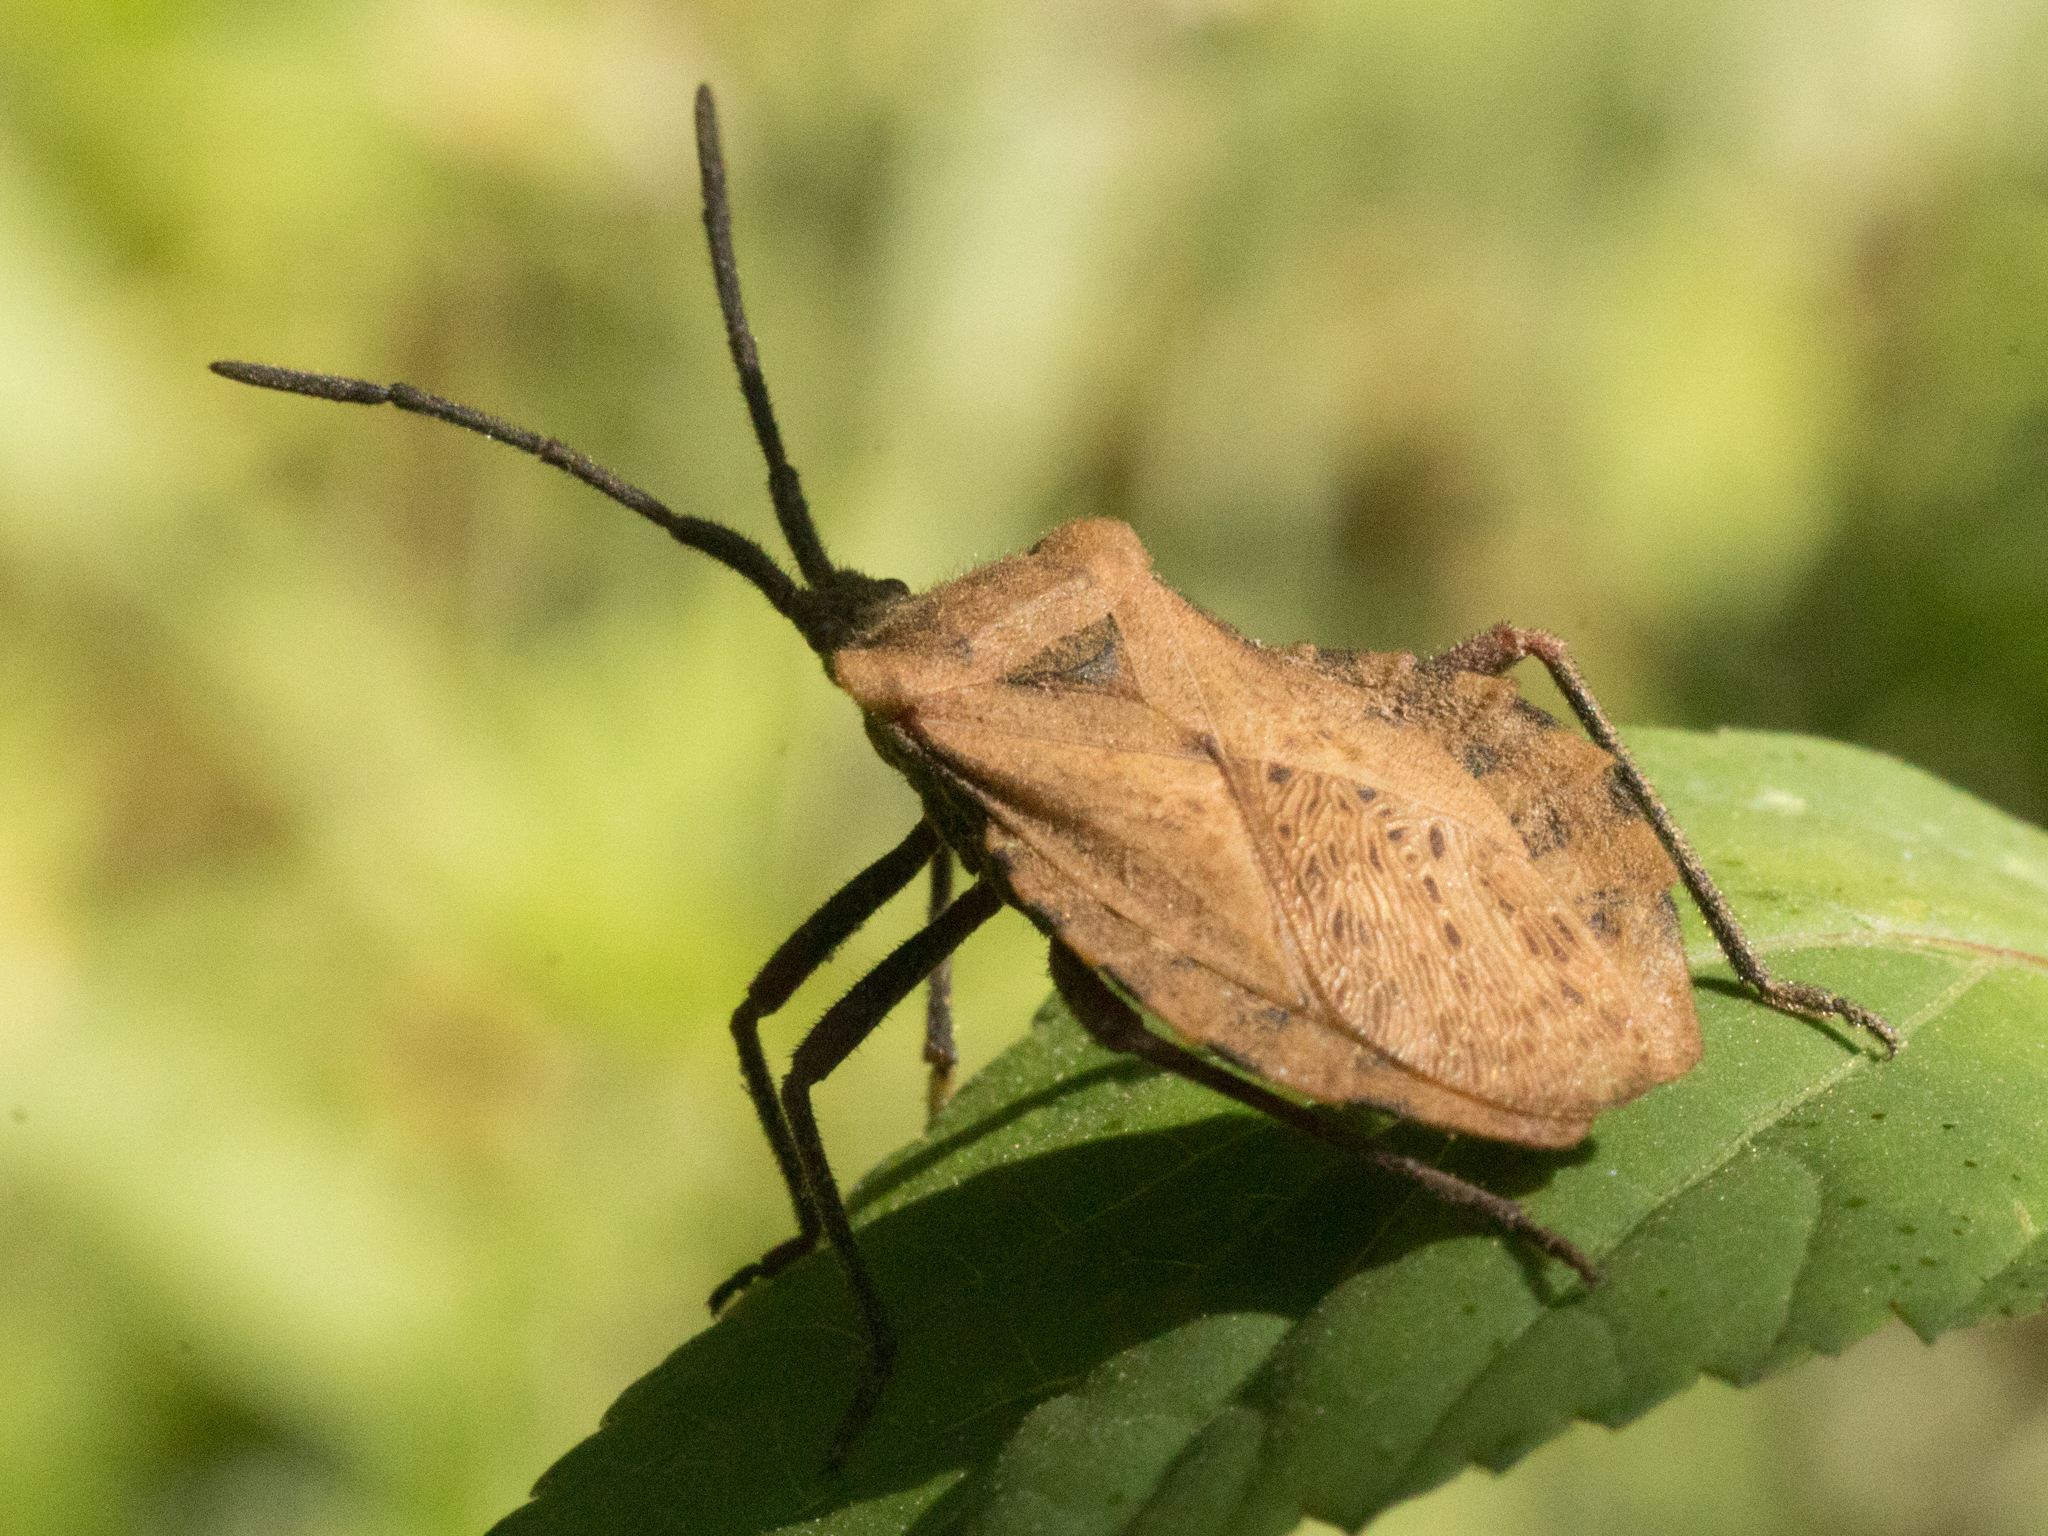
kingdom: Animalia
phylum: Arthropoda
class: Insecta
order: Hemiptera
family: Coreidae
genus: Spartocera
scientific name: Spartocera fusca
